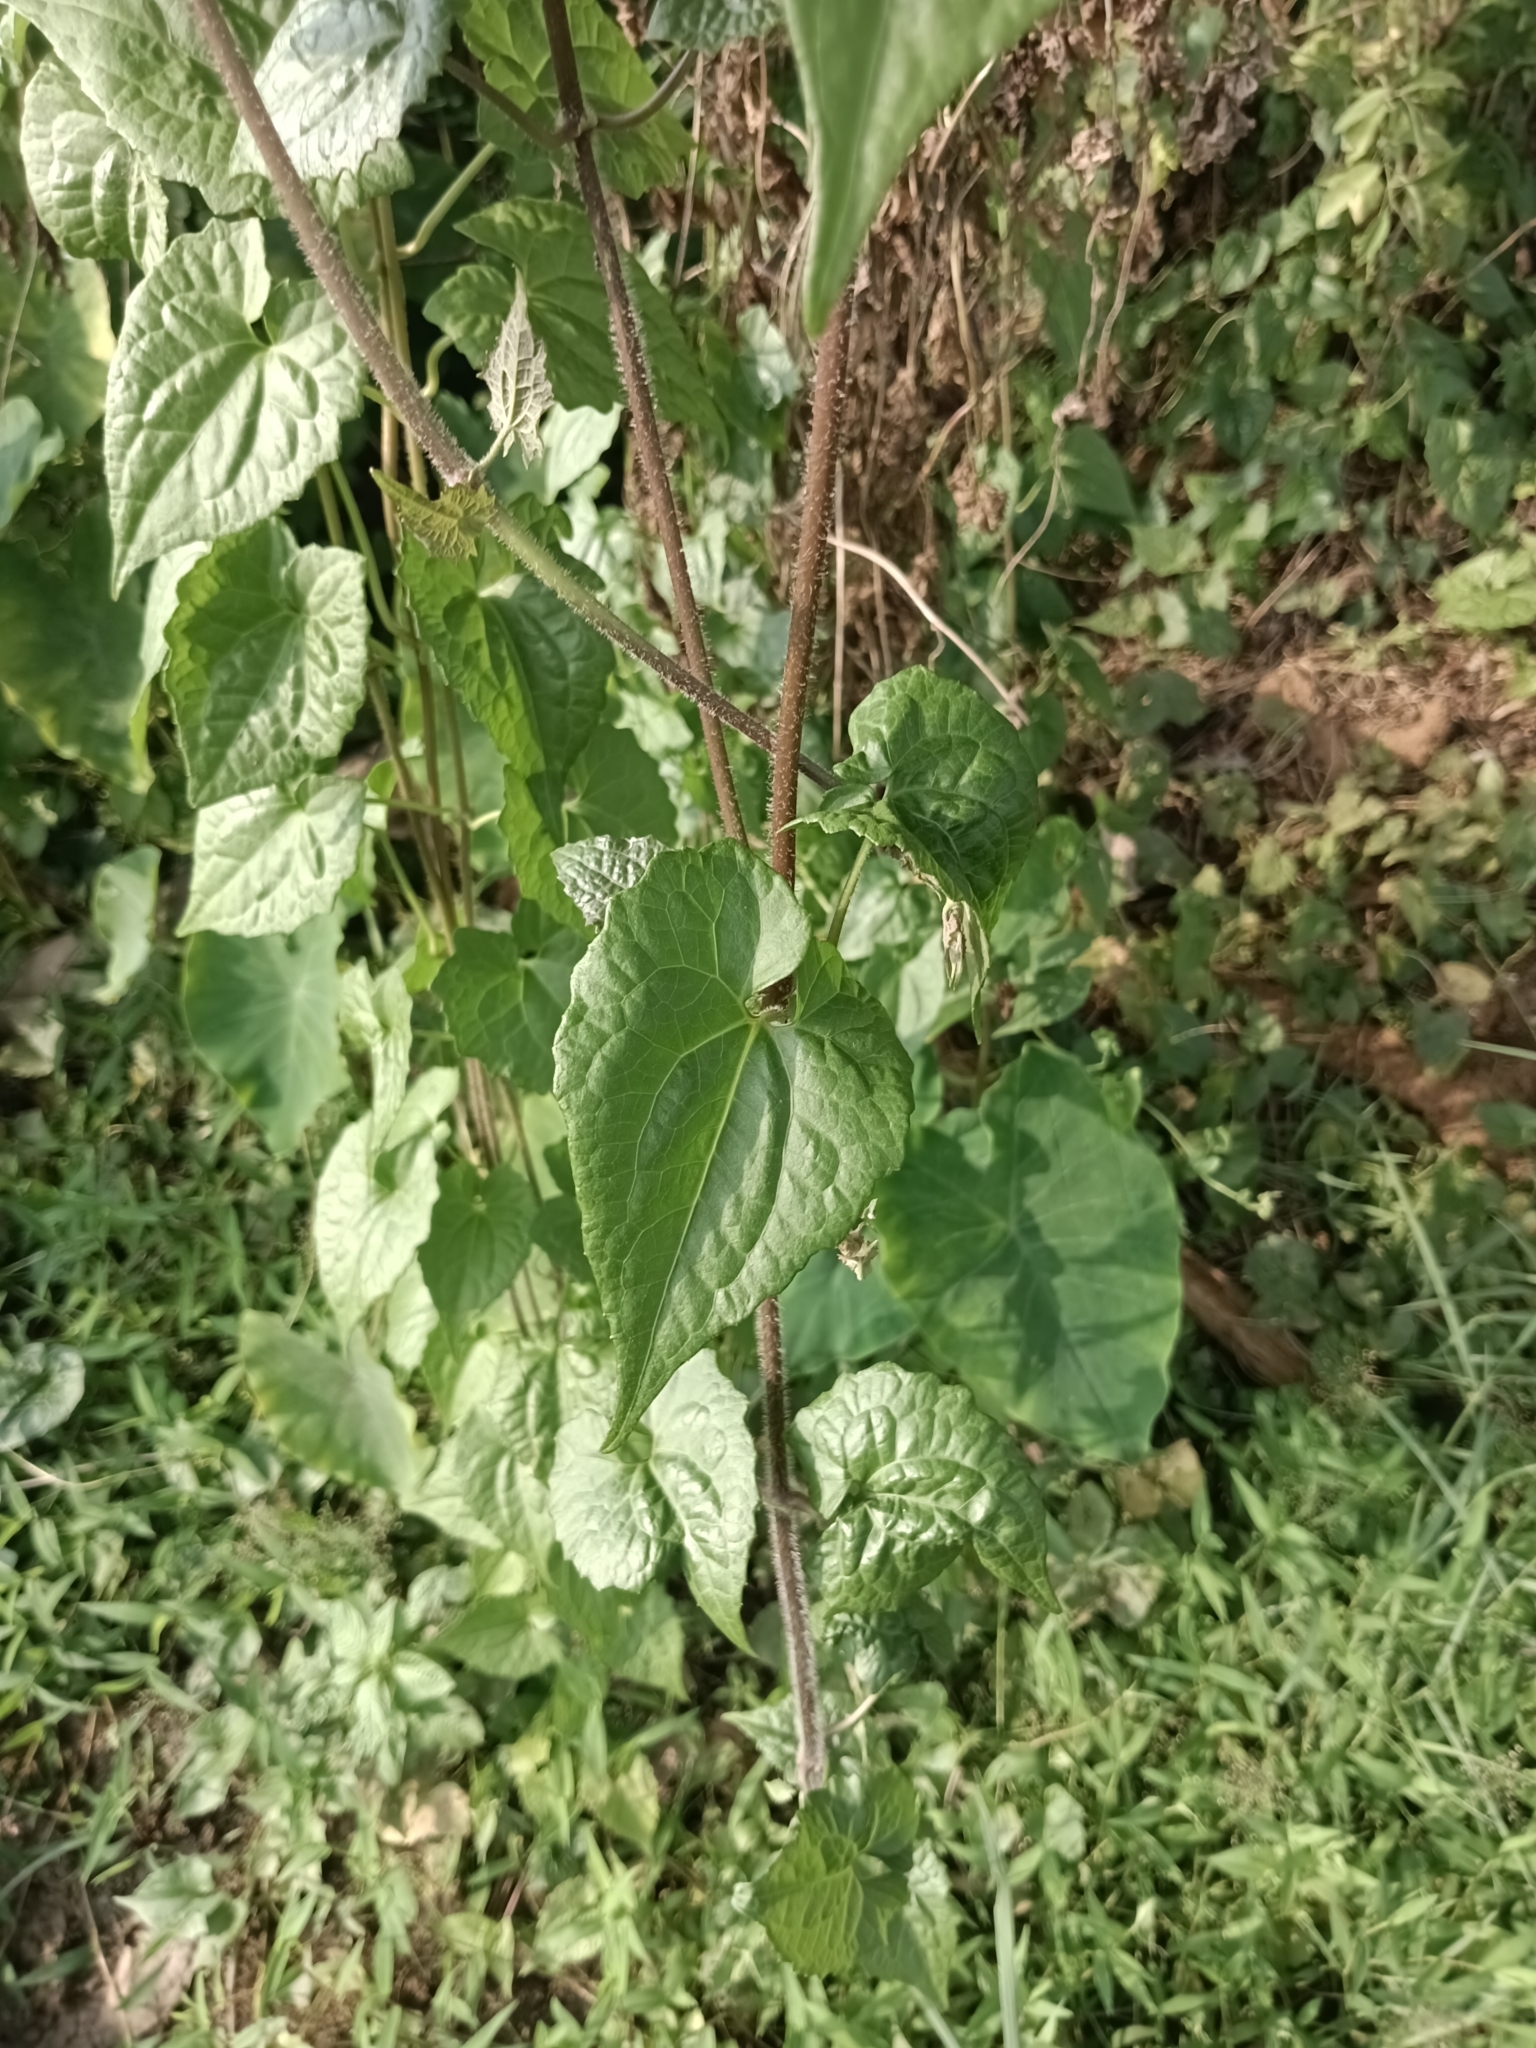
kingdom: Plantae
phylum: Tracheophyta
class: Magnoliopsida
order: Asterales
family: Asteraceae
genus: Mikania
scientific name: Mikania micrantha
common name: Mile-a-minute
